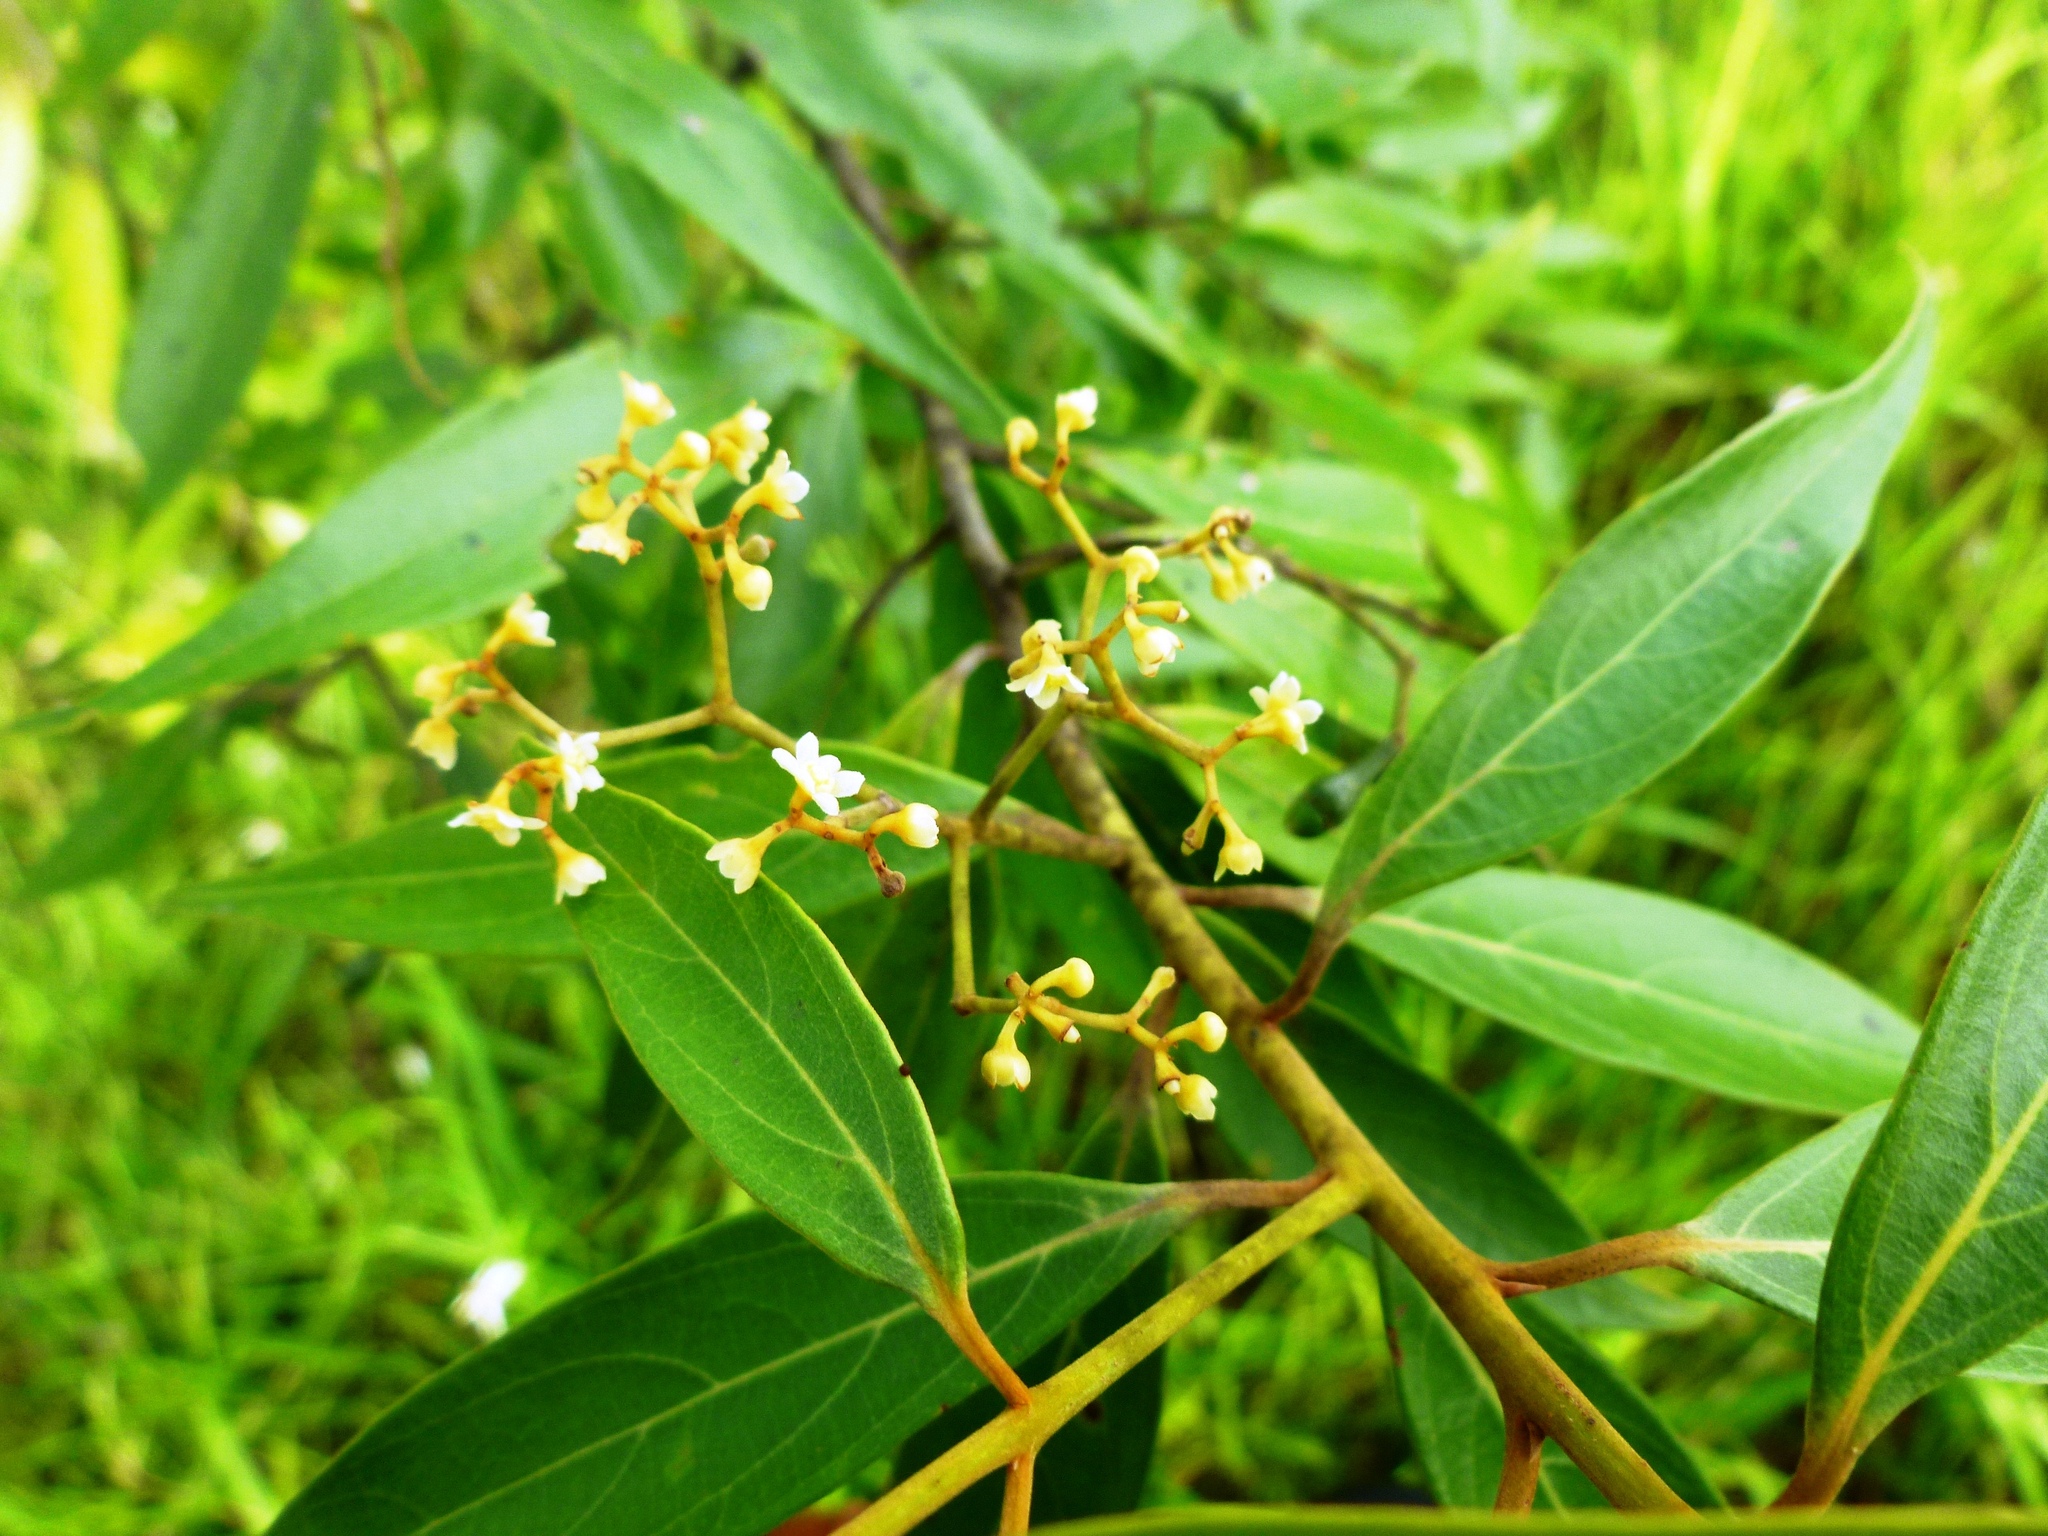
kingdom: Plantae
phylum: Tracheophyta
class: Magnoliopsida
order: Laurales
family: Lauraceae
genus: Nectandra
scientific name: Nectandra cuspidata
